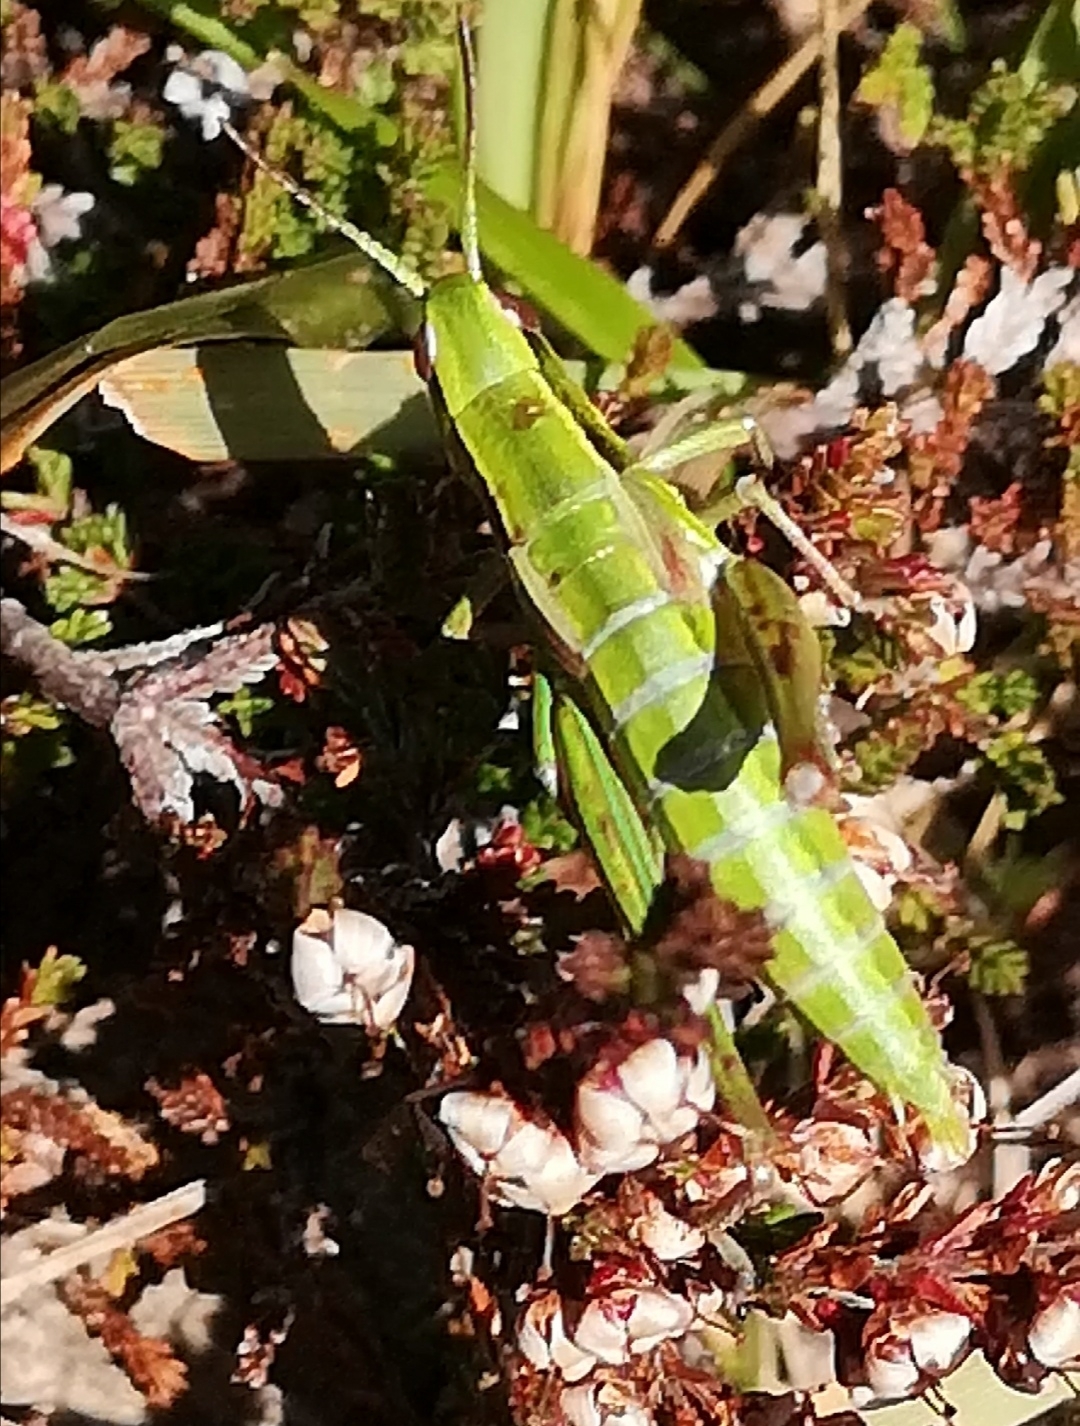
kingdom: Animalia
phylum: Arthropoda
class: Insecta
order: Orthoptera
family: Acrididae
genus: Euthystira
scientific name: Euthystira brachyptera
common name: Small gold grasshopper
